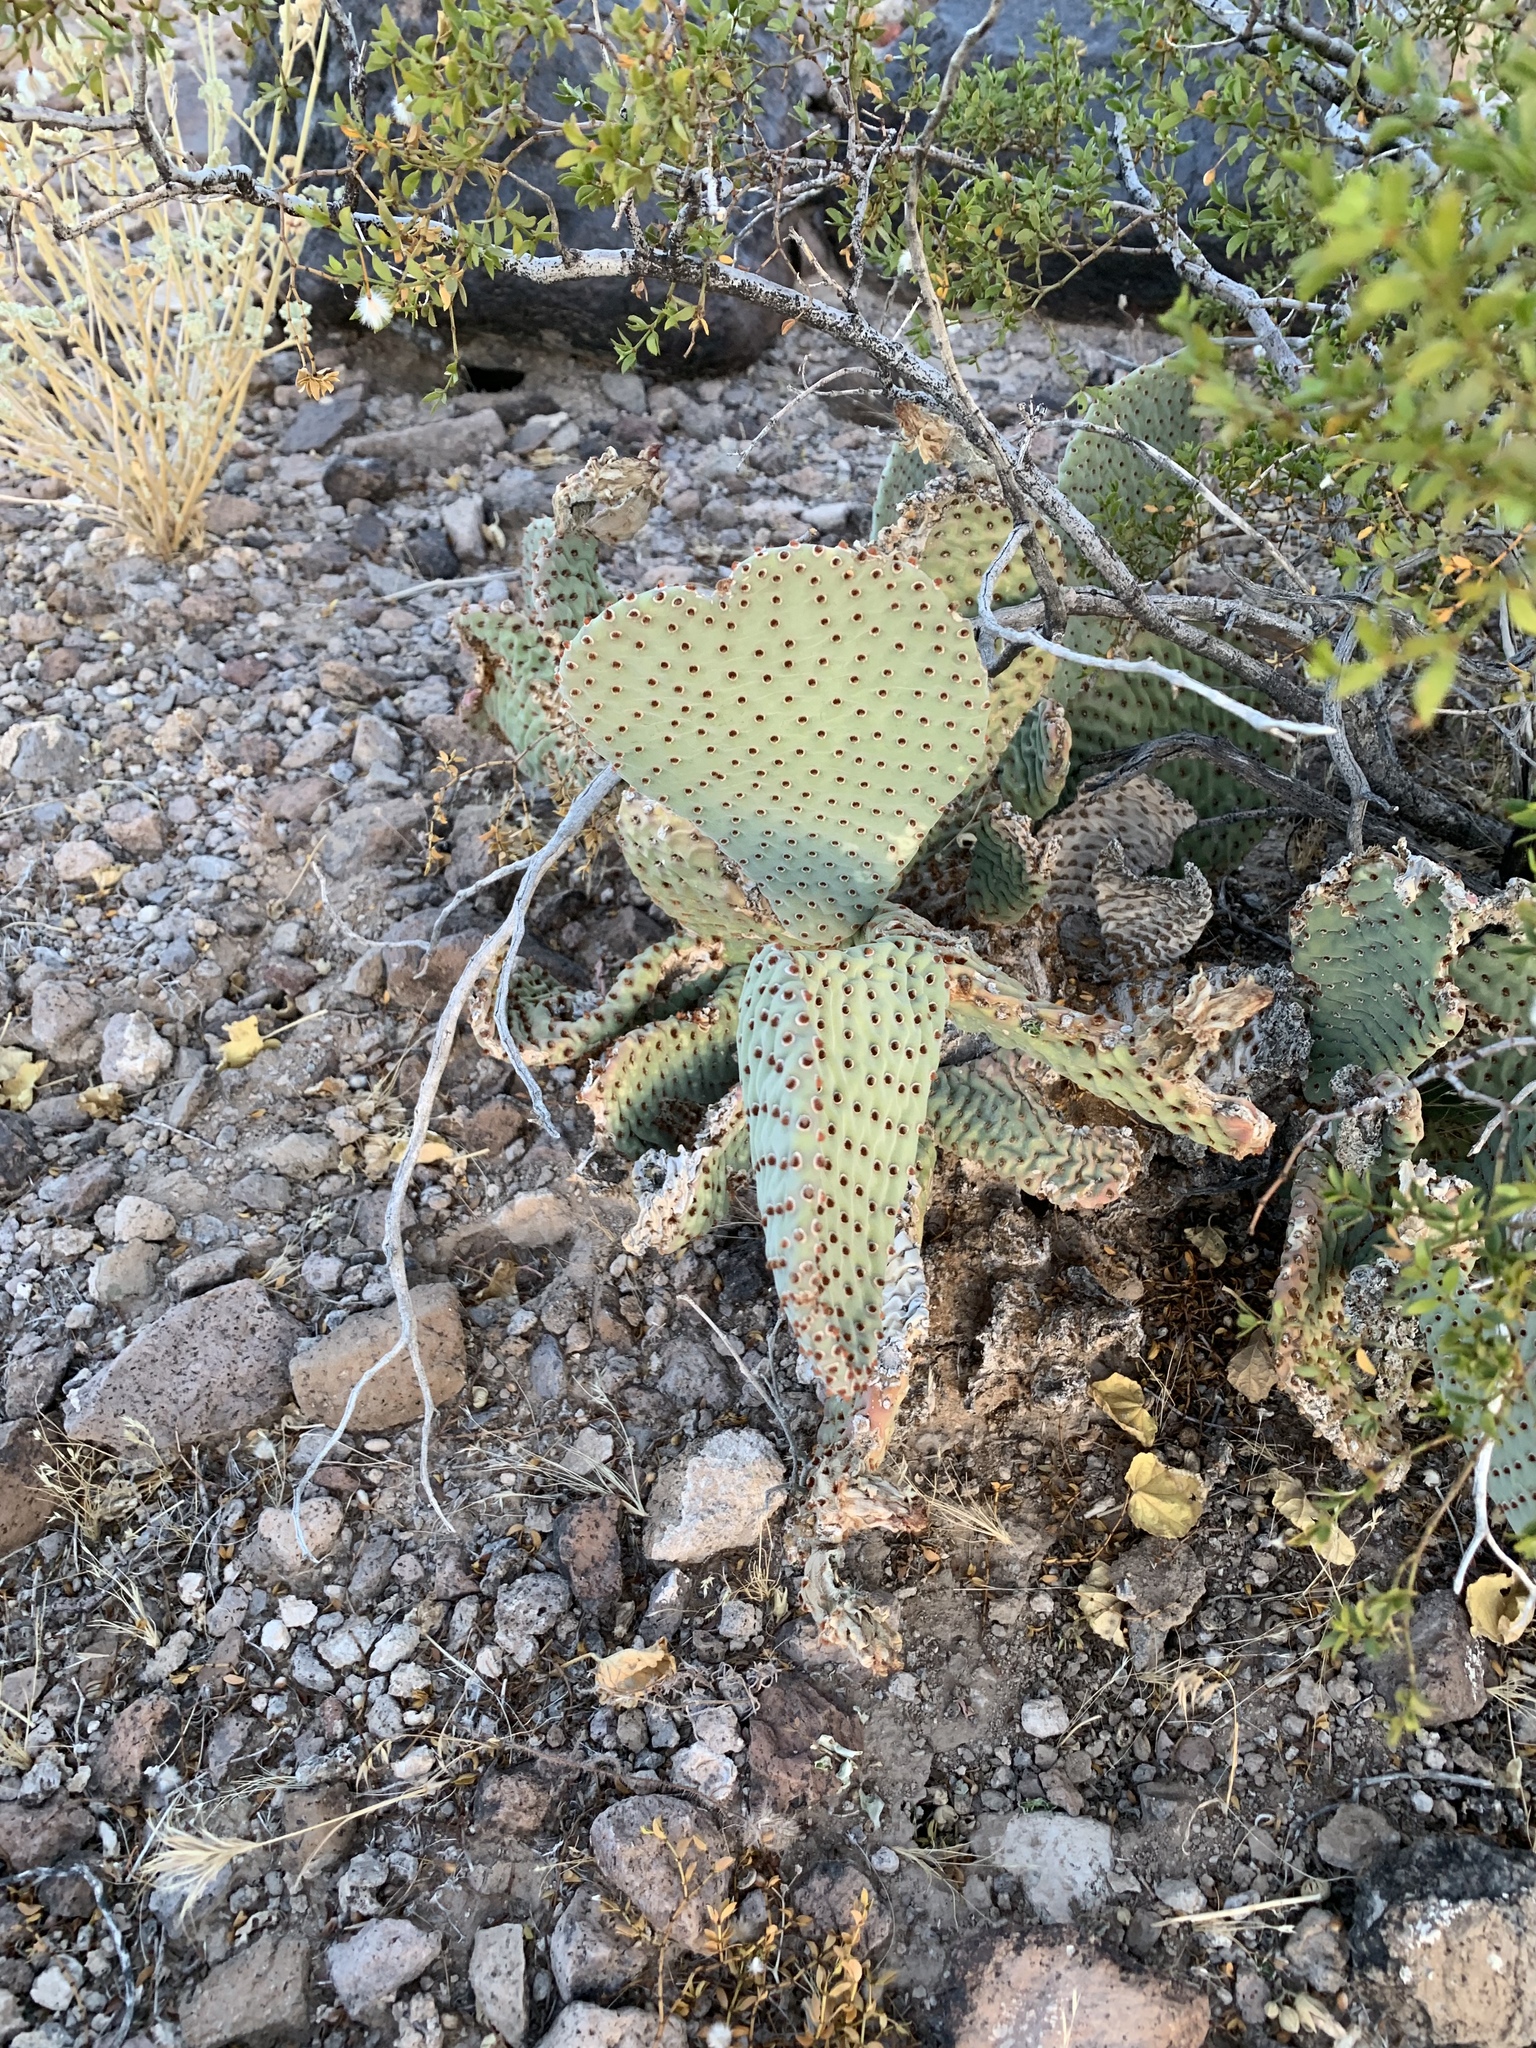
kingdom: Plantae
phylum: Tracheophyta
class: Magnoliopsida
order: Caryophyllales
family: Cactaceae
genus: Opuntia
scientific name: Opuntia basilaris
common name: Beavertail prickly-pear
